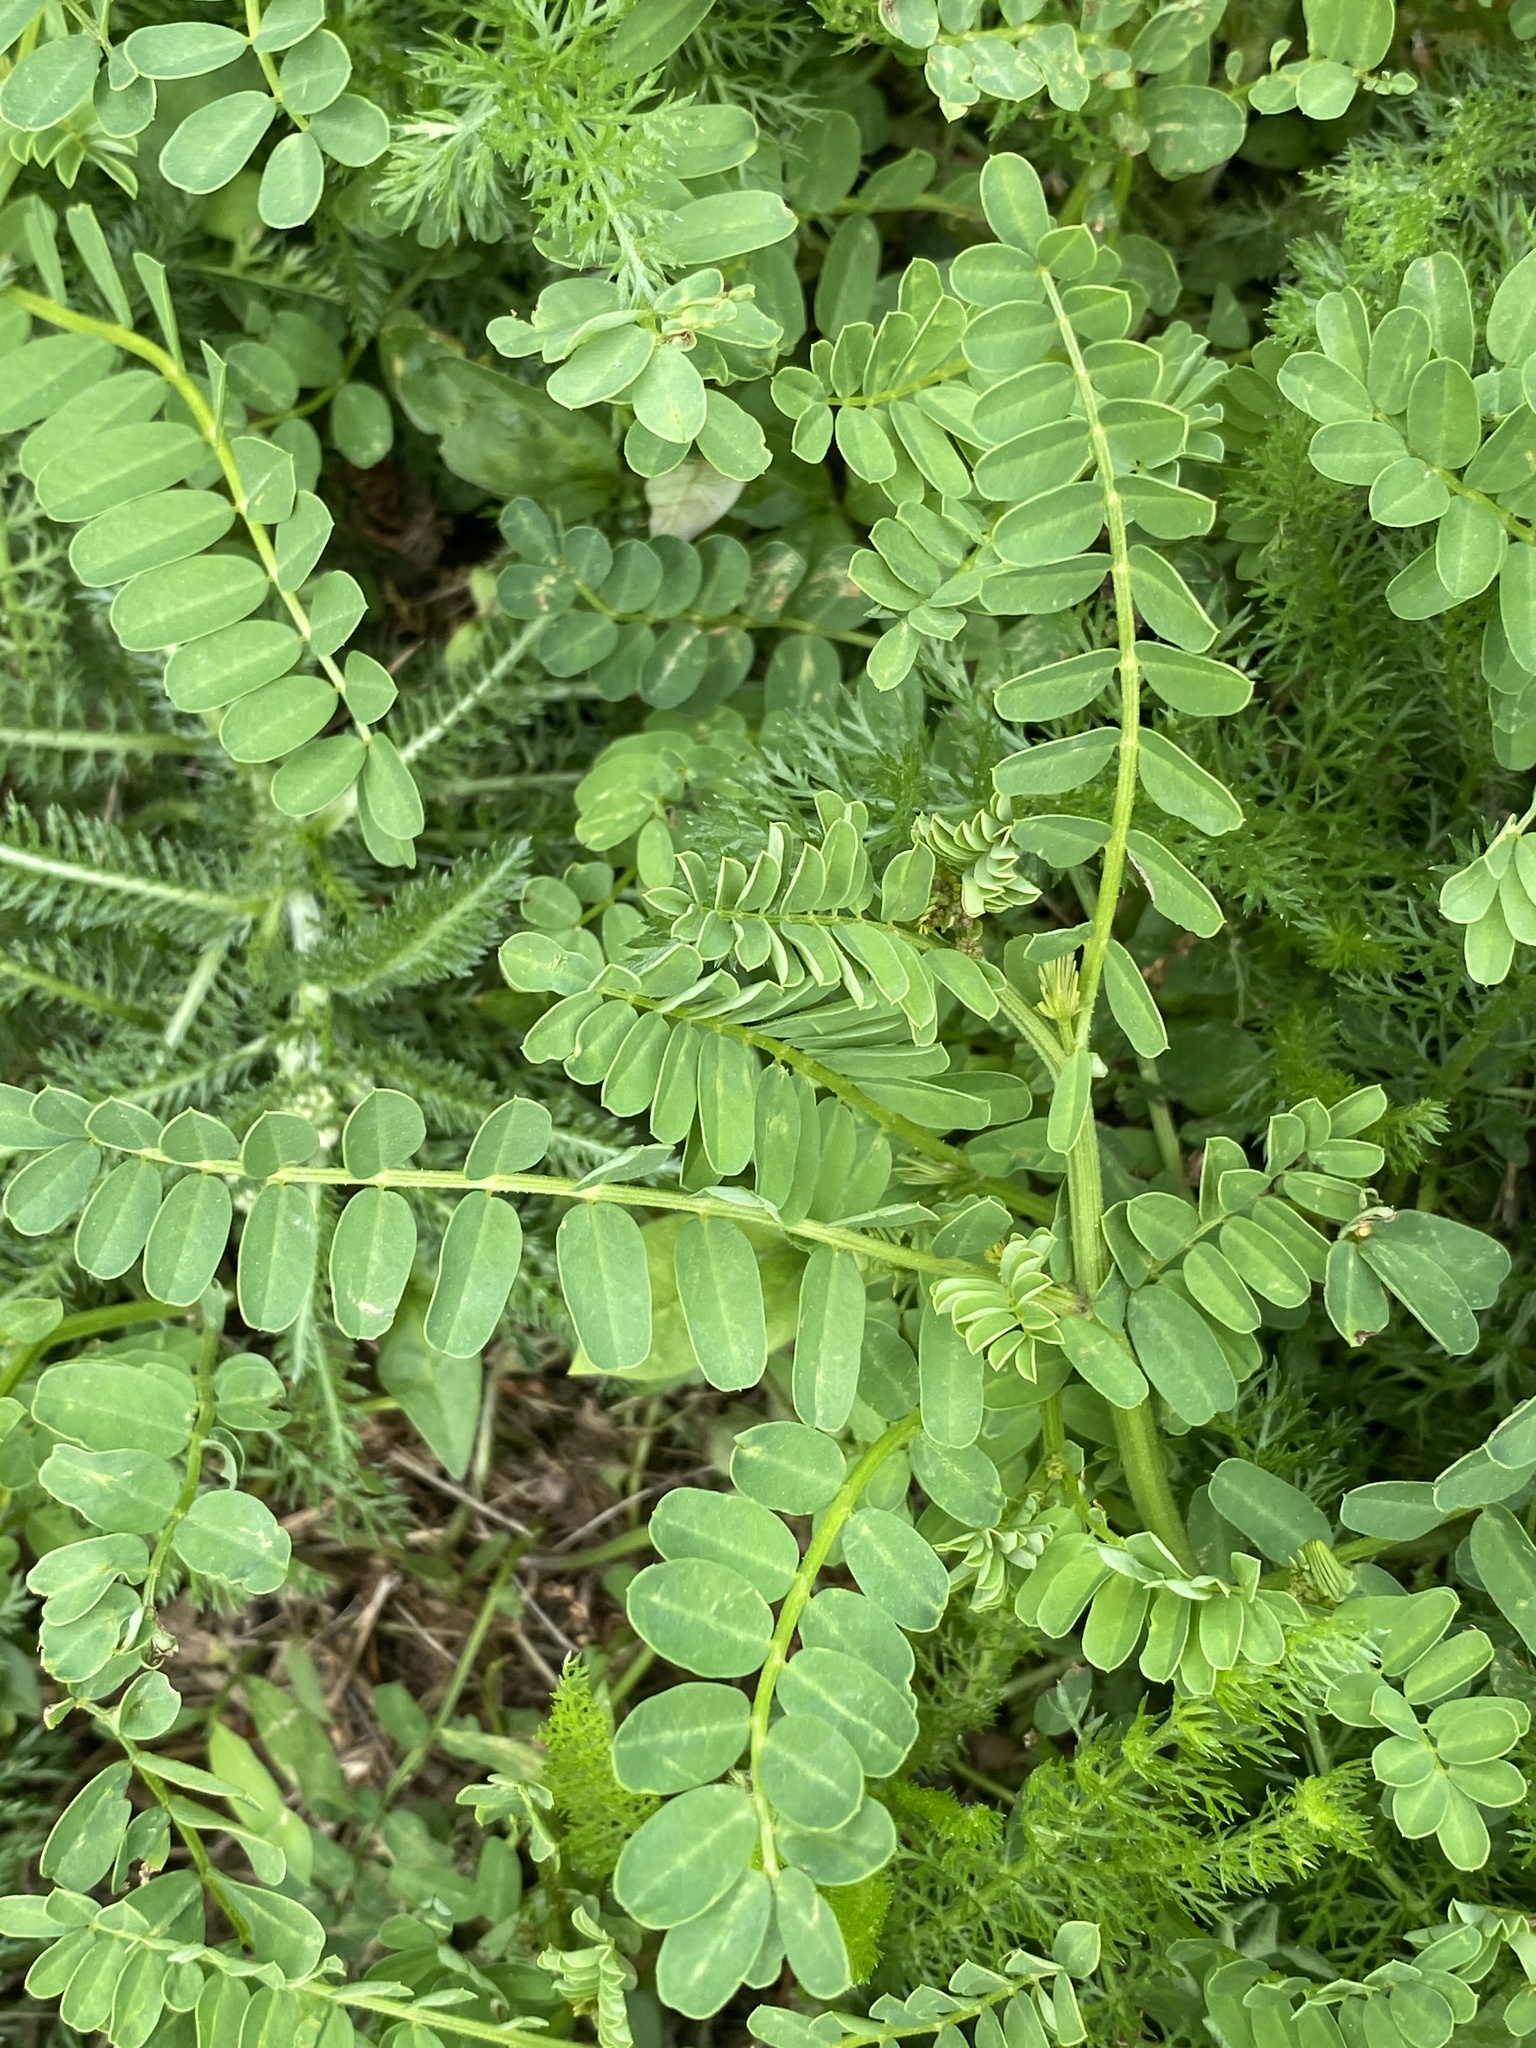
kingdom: Plantae
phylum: Tracheophyta
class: Magnoliopsida
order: Fabales
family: Fabaceae
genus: Coronilla
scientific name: Coronilla varia
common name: Crownvetch
